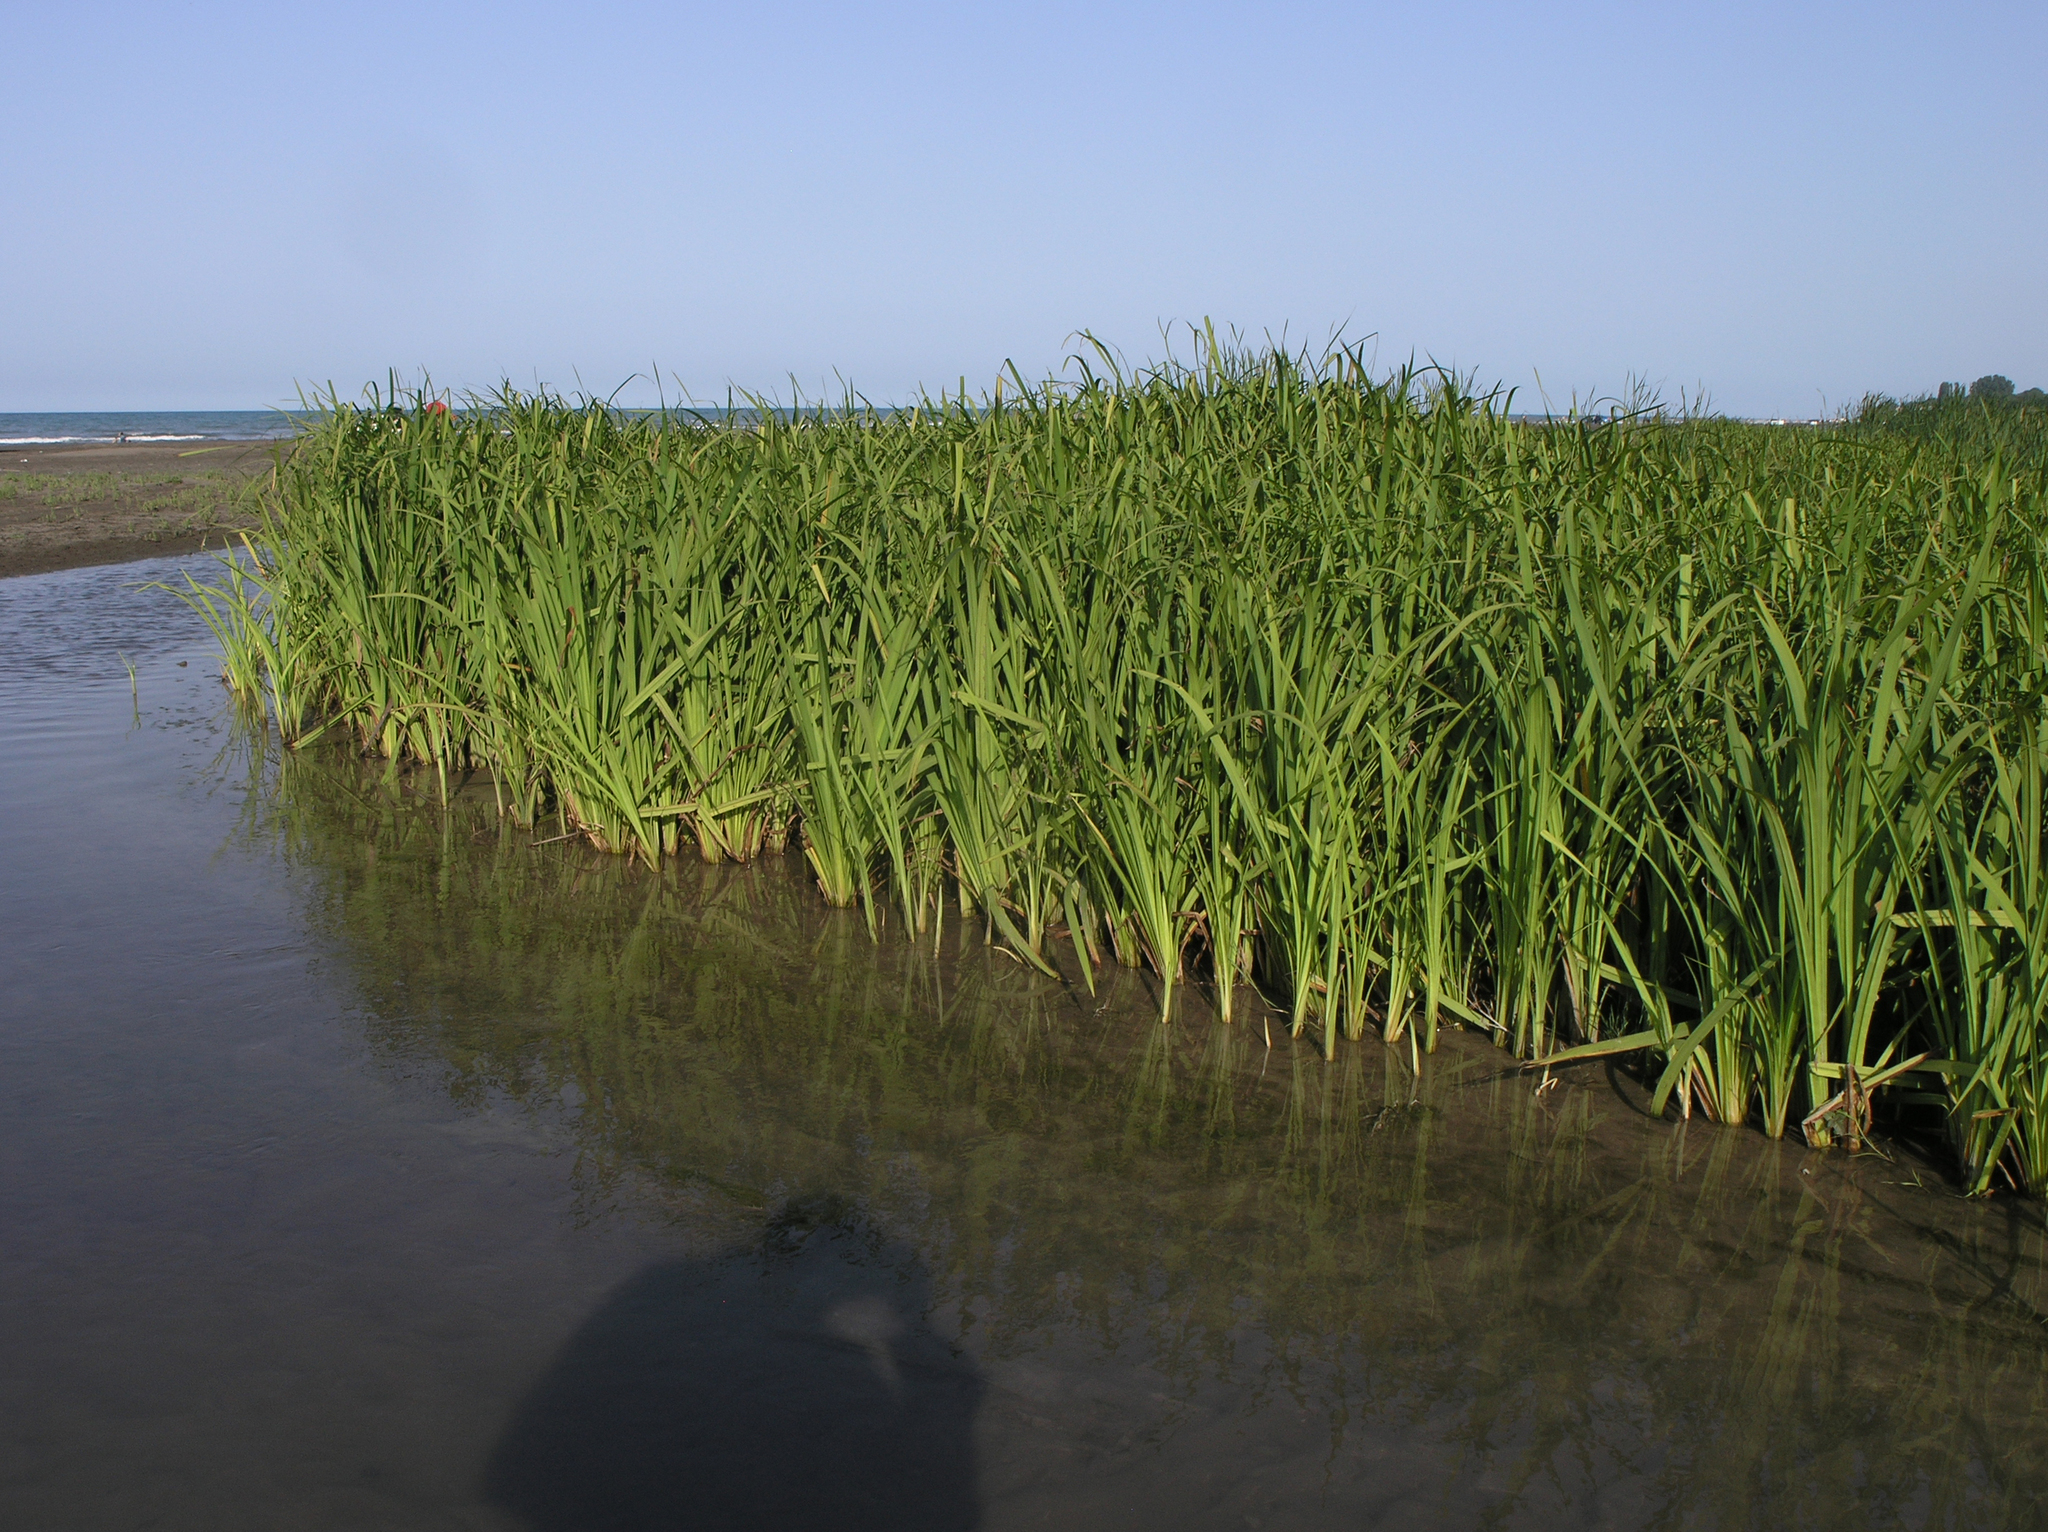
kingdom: Plantae
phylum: Tracheophyta
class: Liliopsida
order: Poales
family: Typhaceae
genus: Sparganium
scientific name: Sparganium erectum
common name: Branched bur-reed
